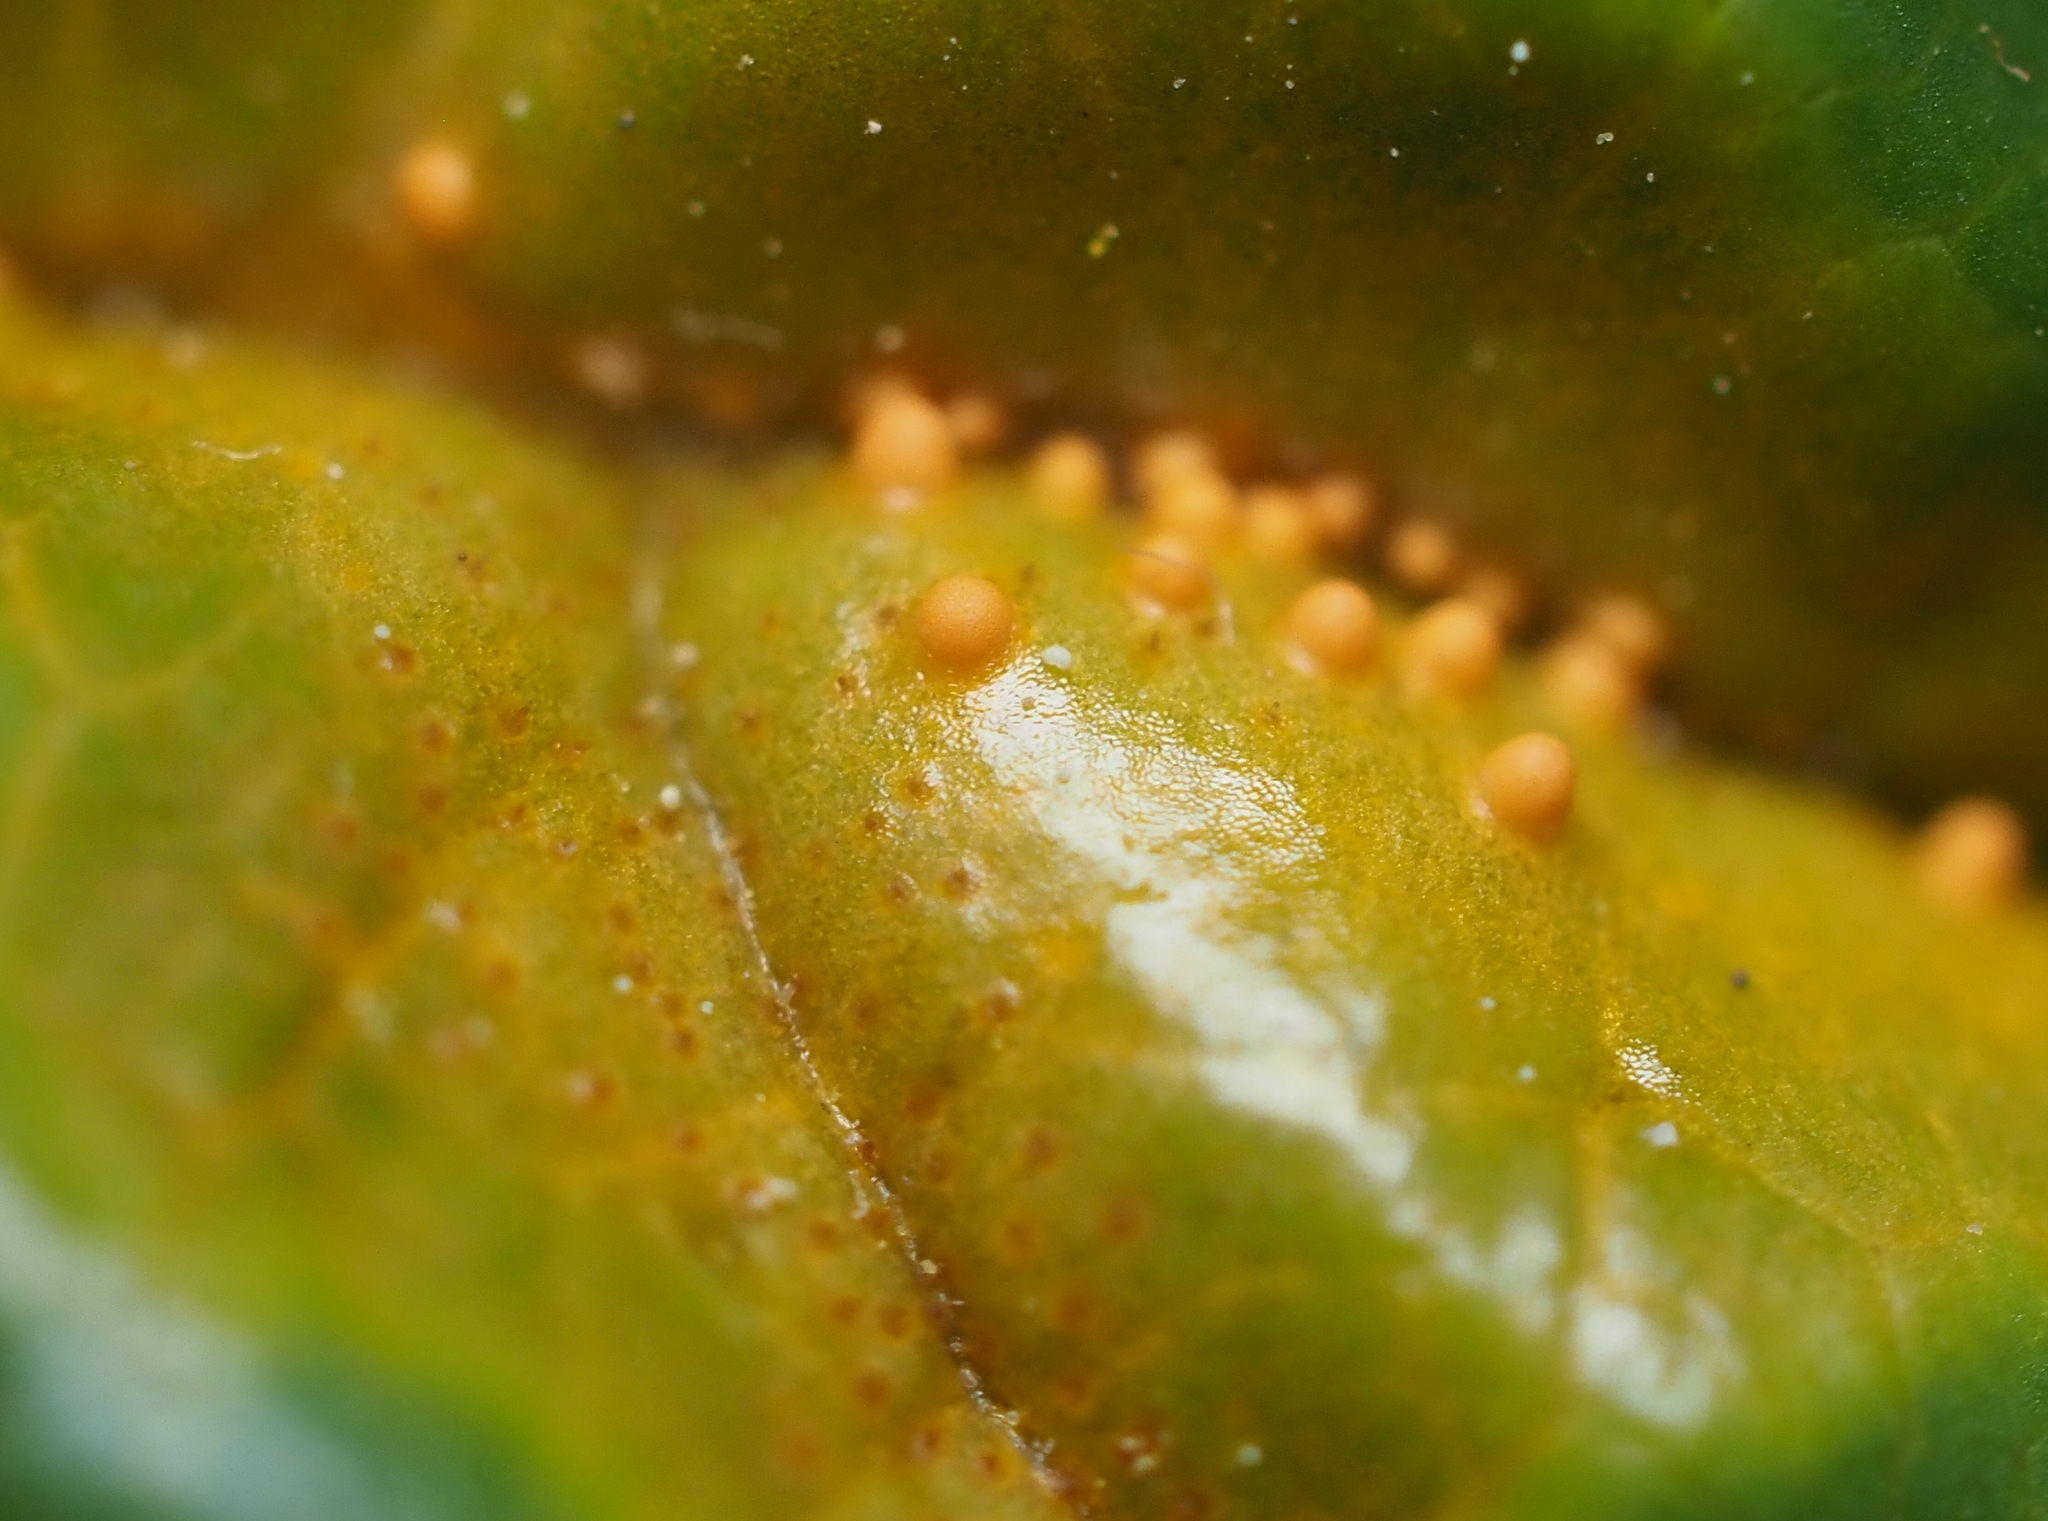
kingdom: Fungi
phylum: Basidiomycota
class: Pucciniomycetes
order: Pucciniales
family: Pucciniaceae
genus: Puccinia
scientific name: Puccinia coronata
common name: Crown rust
